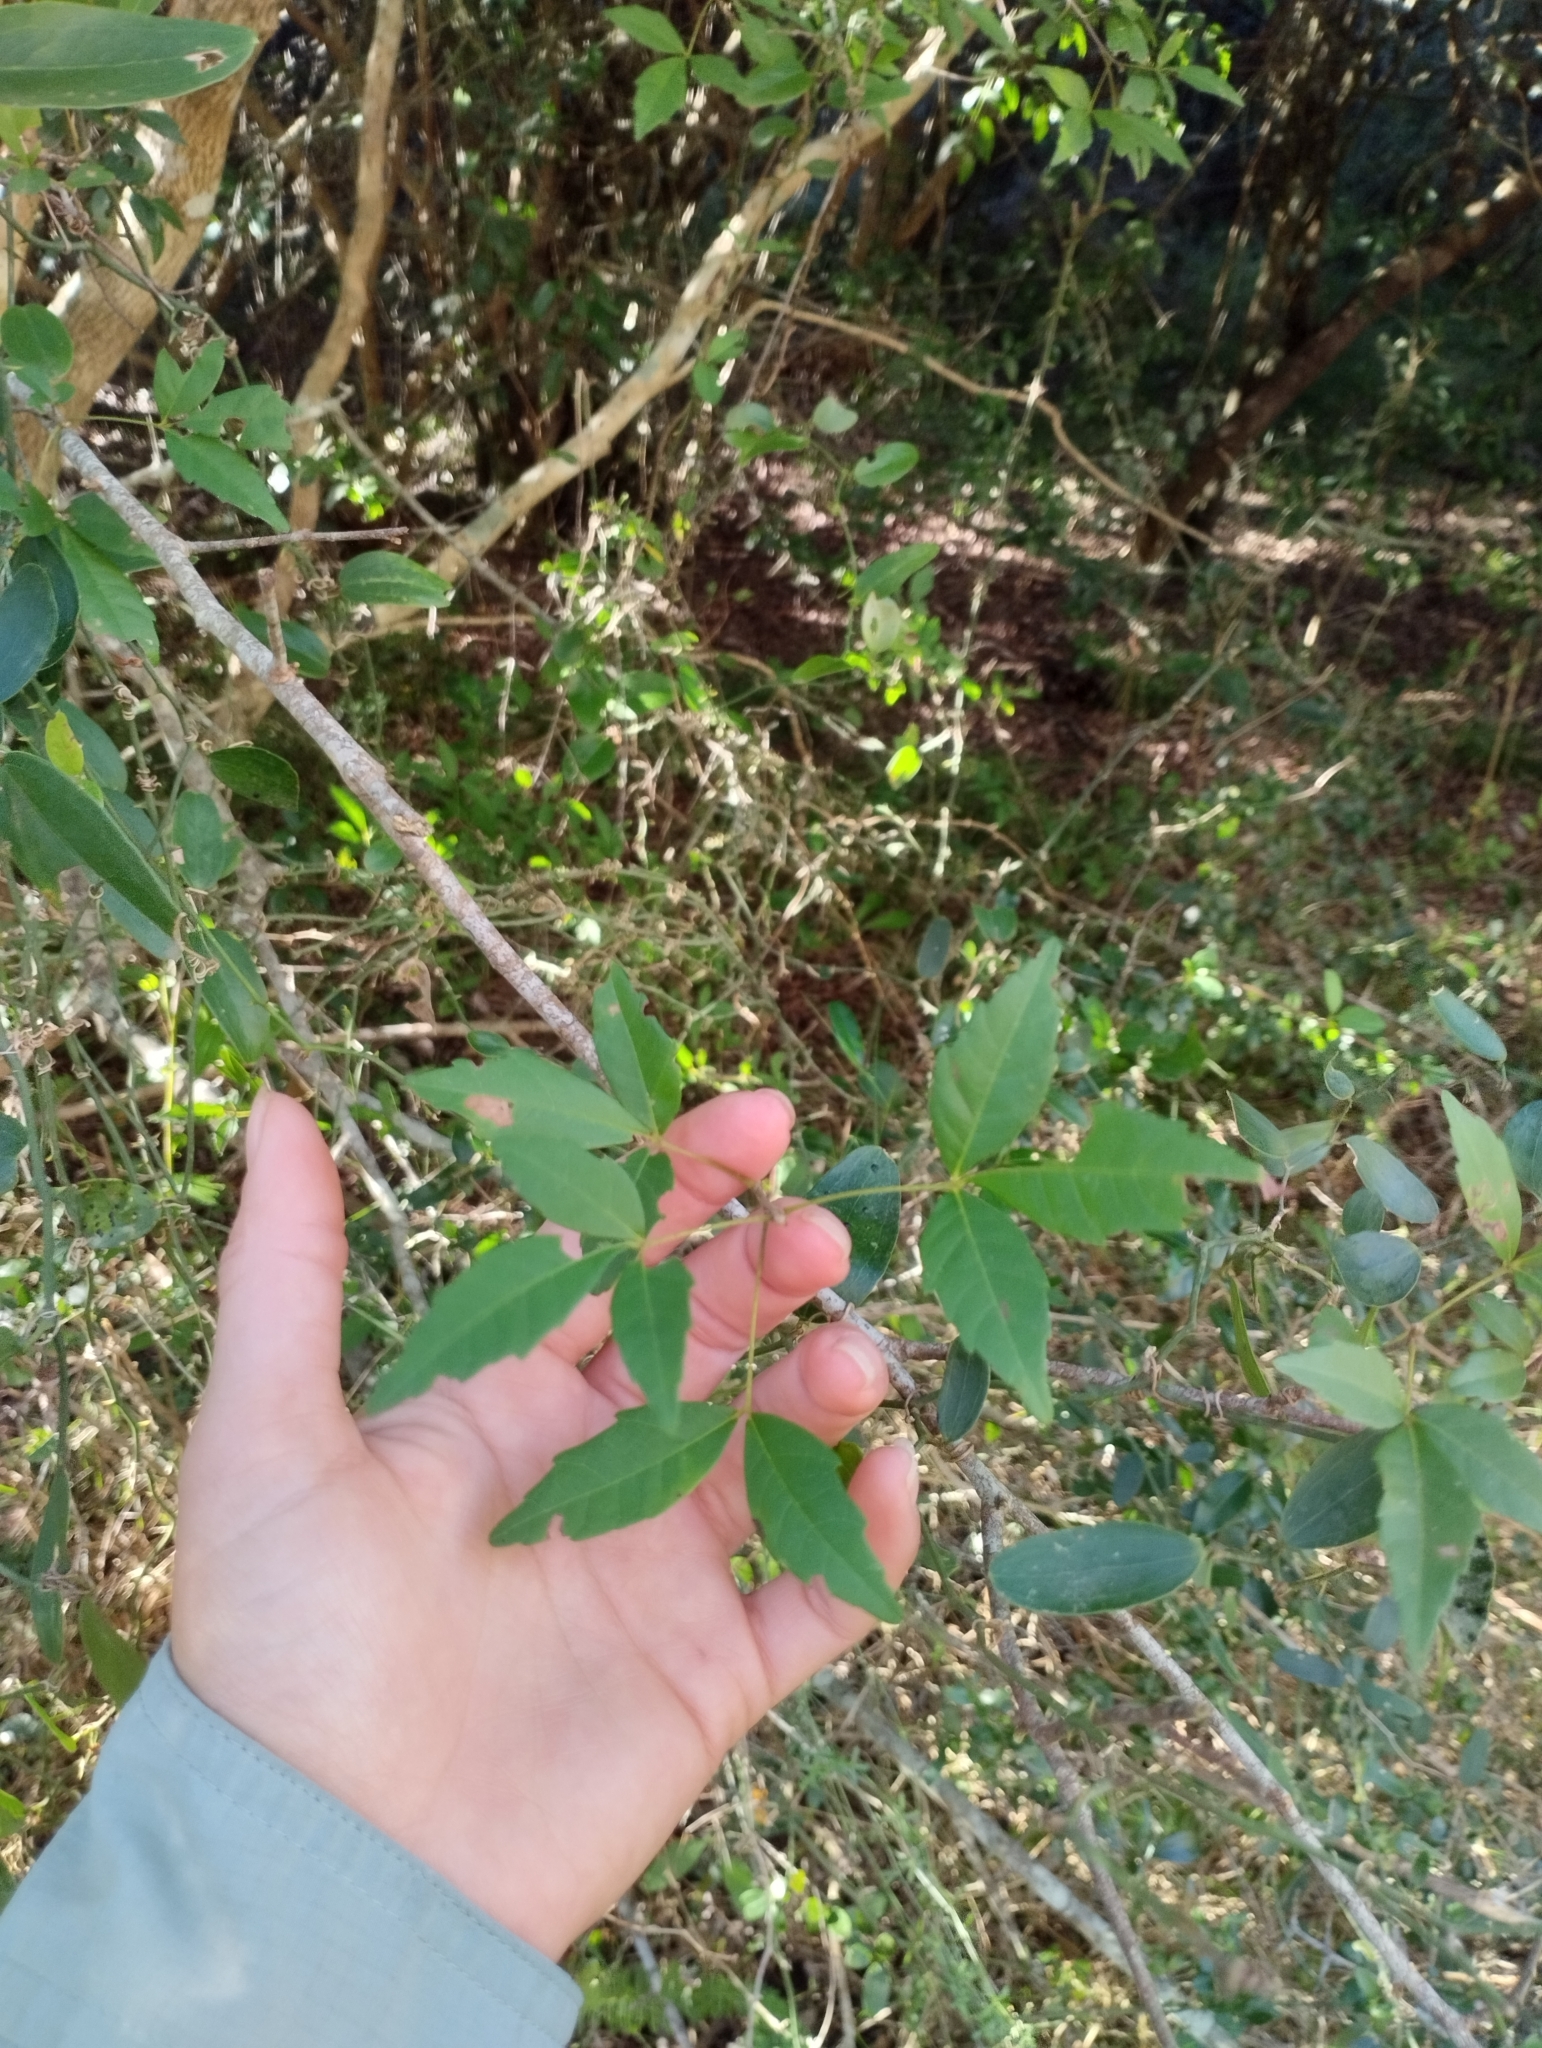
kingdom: Plantae
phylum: Tracheophyta
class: Magnoliopsida
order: Sapindales
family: Sapindaceae
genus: Allophylus
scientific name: Allophylus edulis
